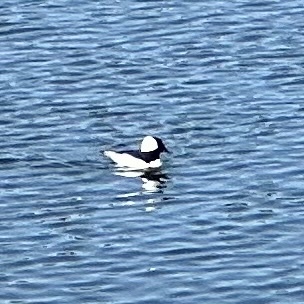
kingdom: Animalia
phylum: Chordata
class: Aves
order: Anseriformes
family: Anatidae
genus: Bucephala
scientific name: Bucephala albeola
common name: Bufflehead
